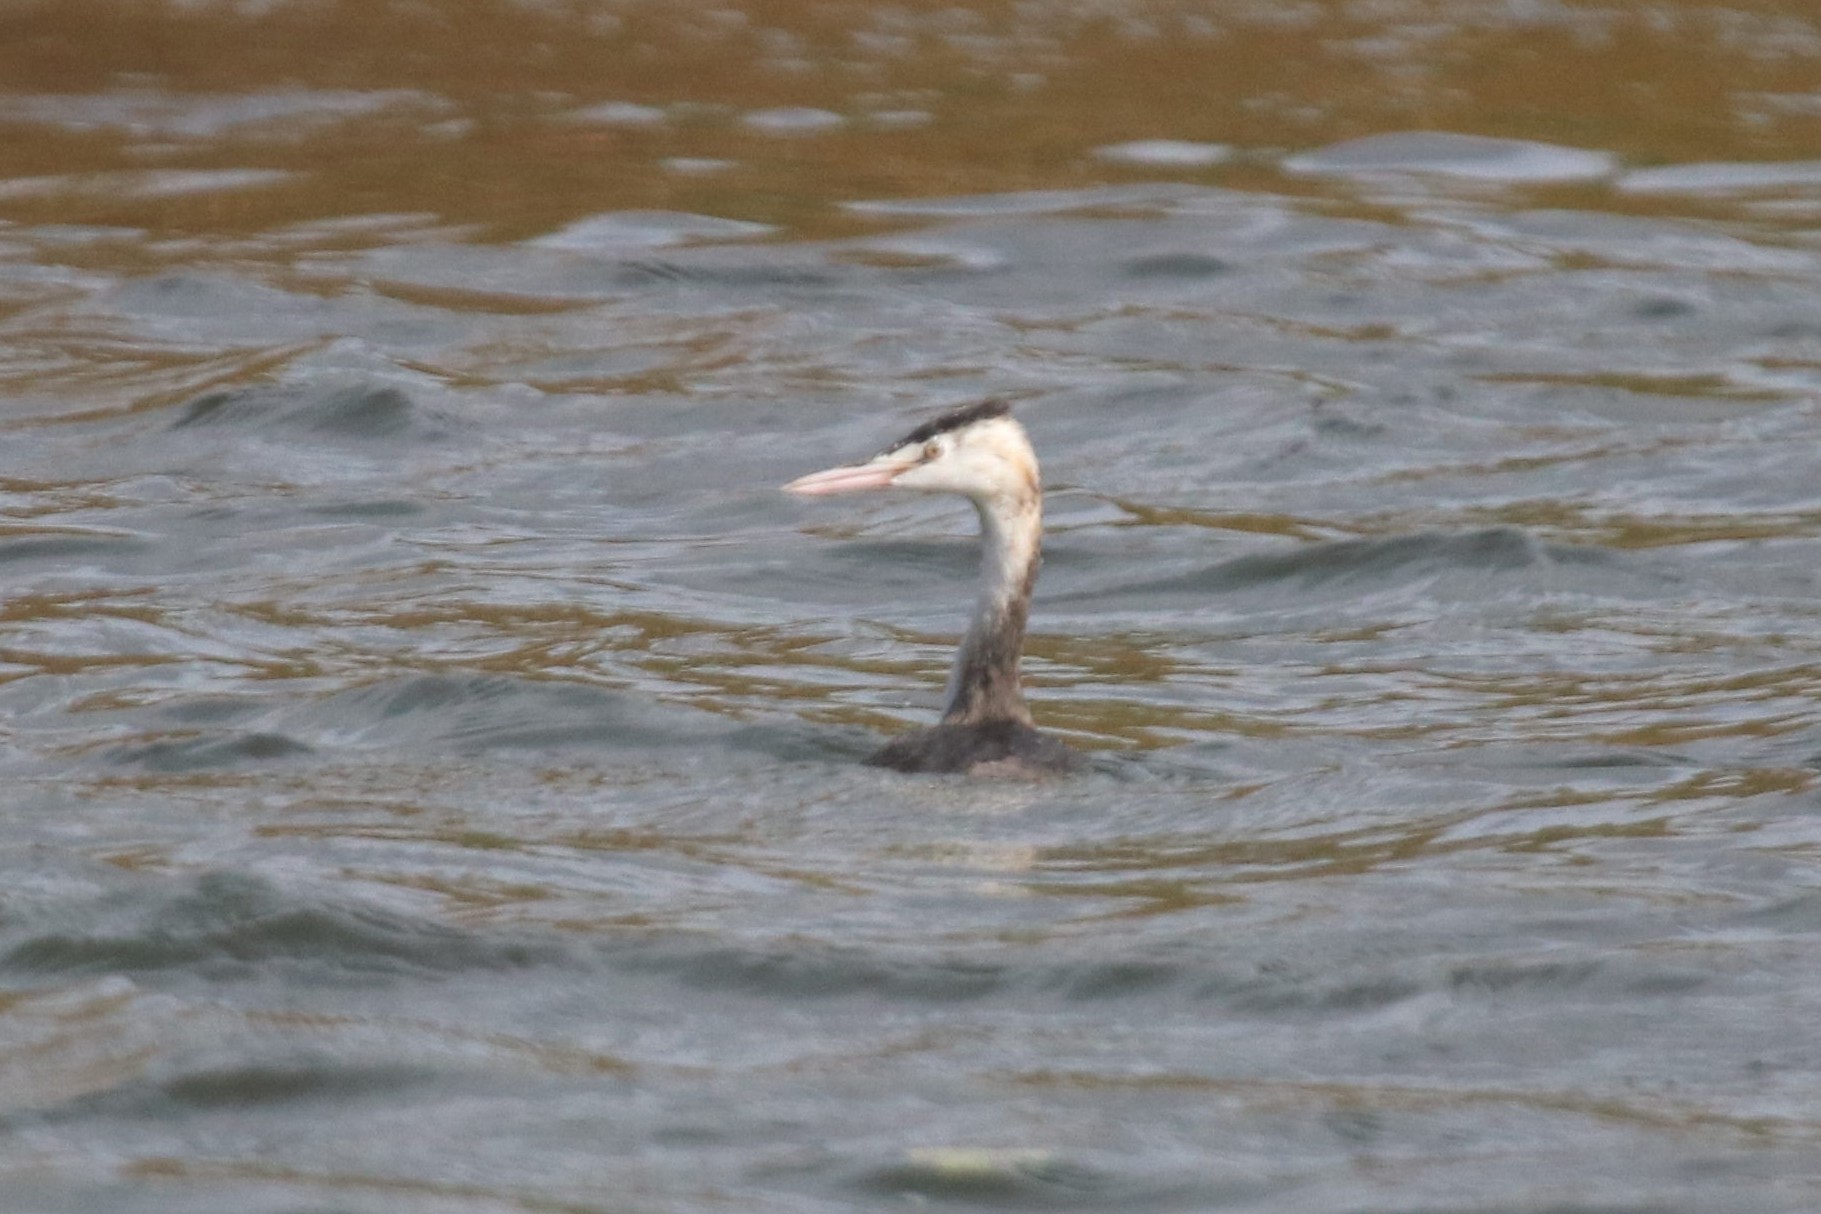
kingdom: Animalia
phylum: Chordata
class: Aves
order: Podicipediformes
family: Podicipedidae
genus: Podiceps
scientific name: Podiceps cristatus
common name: Great crested grebe
